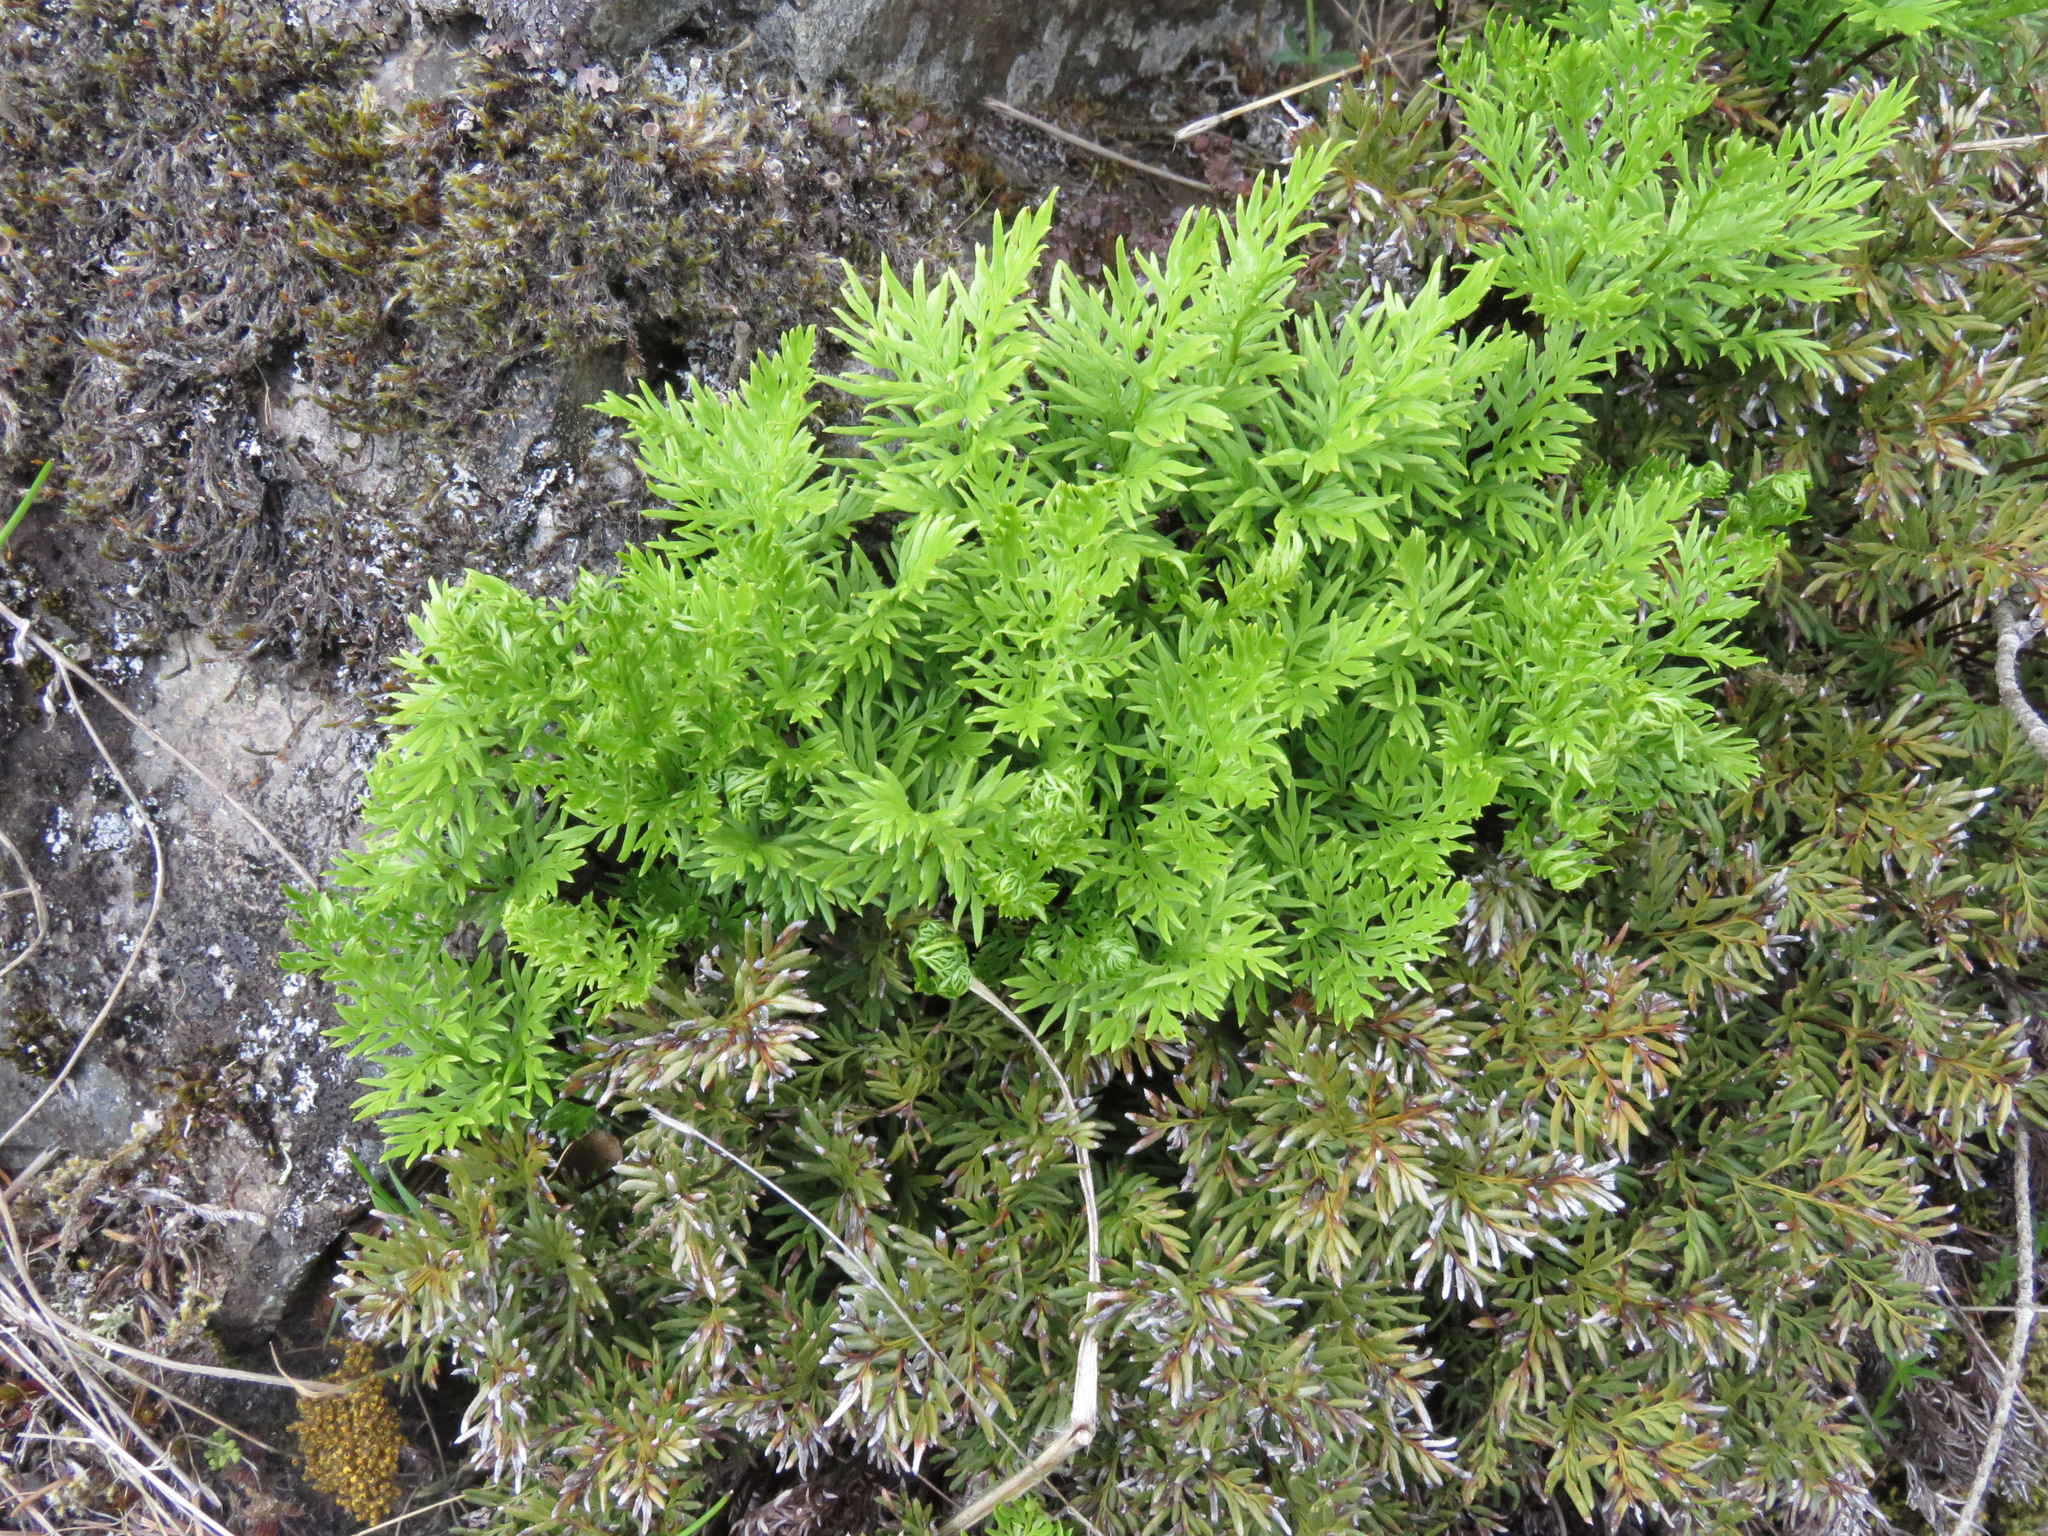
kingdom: Plantae
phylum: Tracheophyta
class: Polypodiopsida
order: Polypodiales
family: Pteridaceae
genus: Aspidotis
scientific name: Aspidotis densa
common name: Indian's dream
